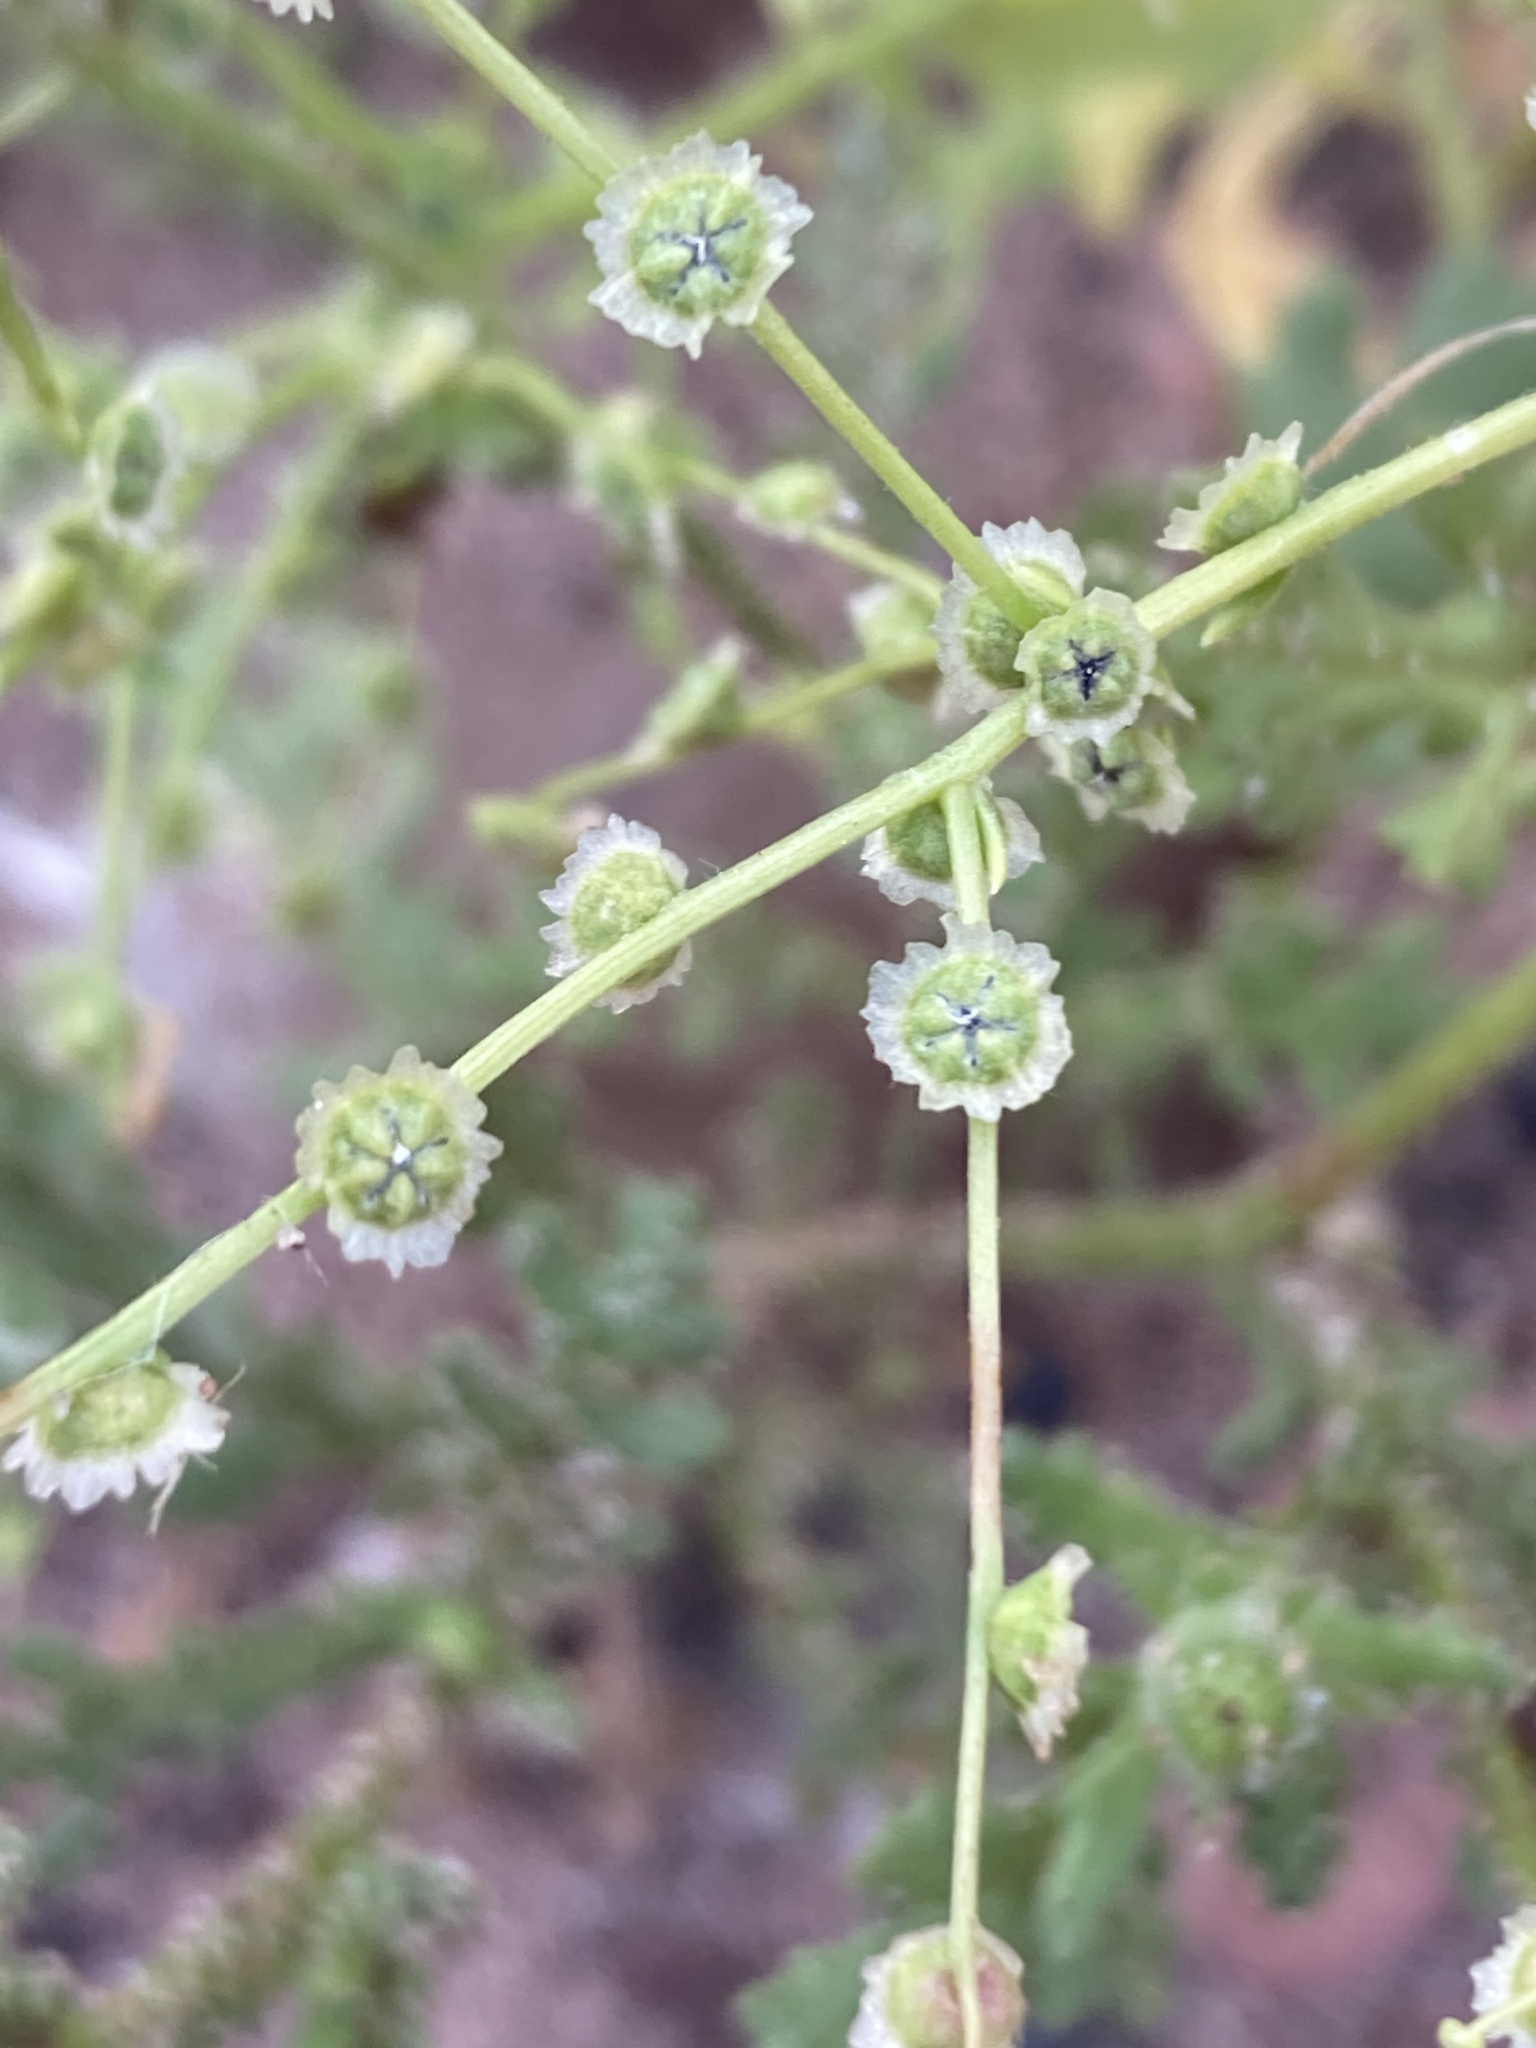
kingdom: Plantae
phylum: Tracheophyta
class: Magnoliopsida
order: Caryophyllales
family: Amaranthaceae
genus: Dysphania
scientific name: Dysphania atriplicifolia
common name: Plains tumbleweed
